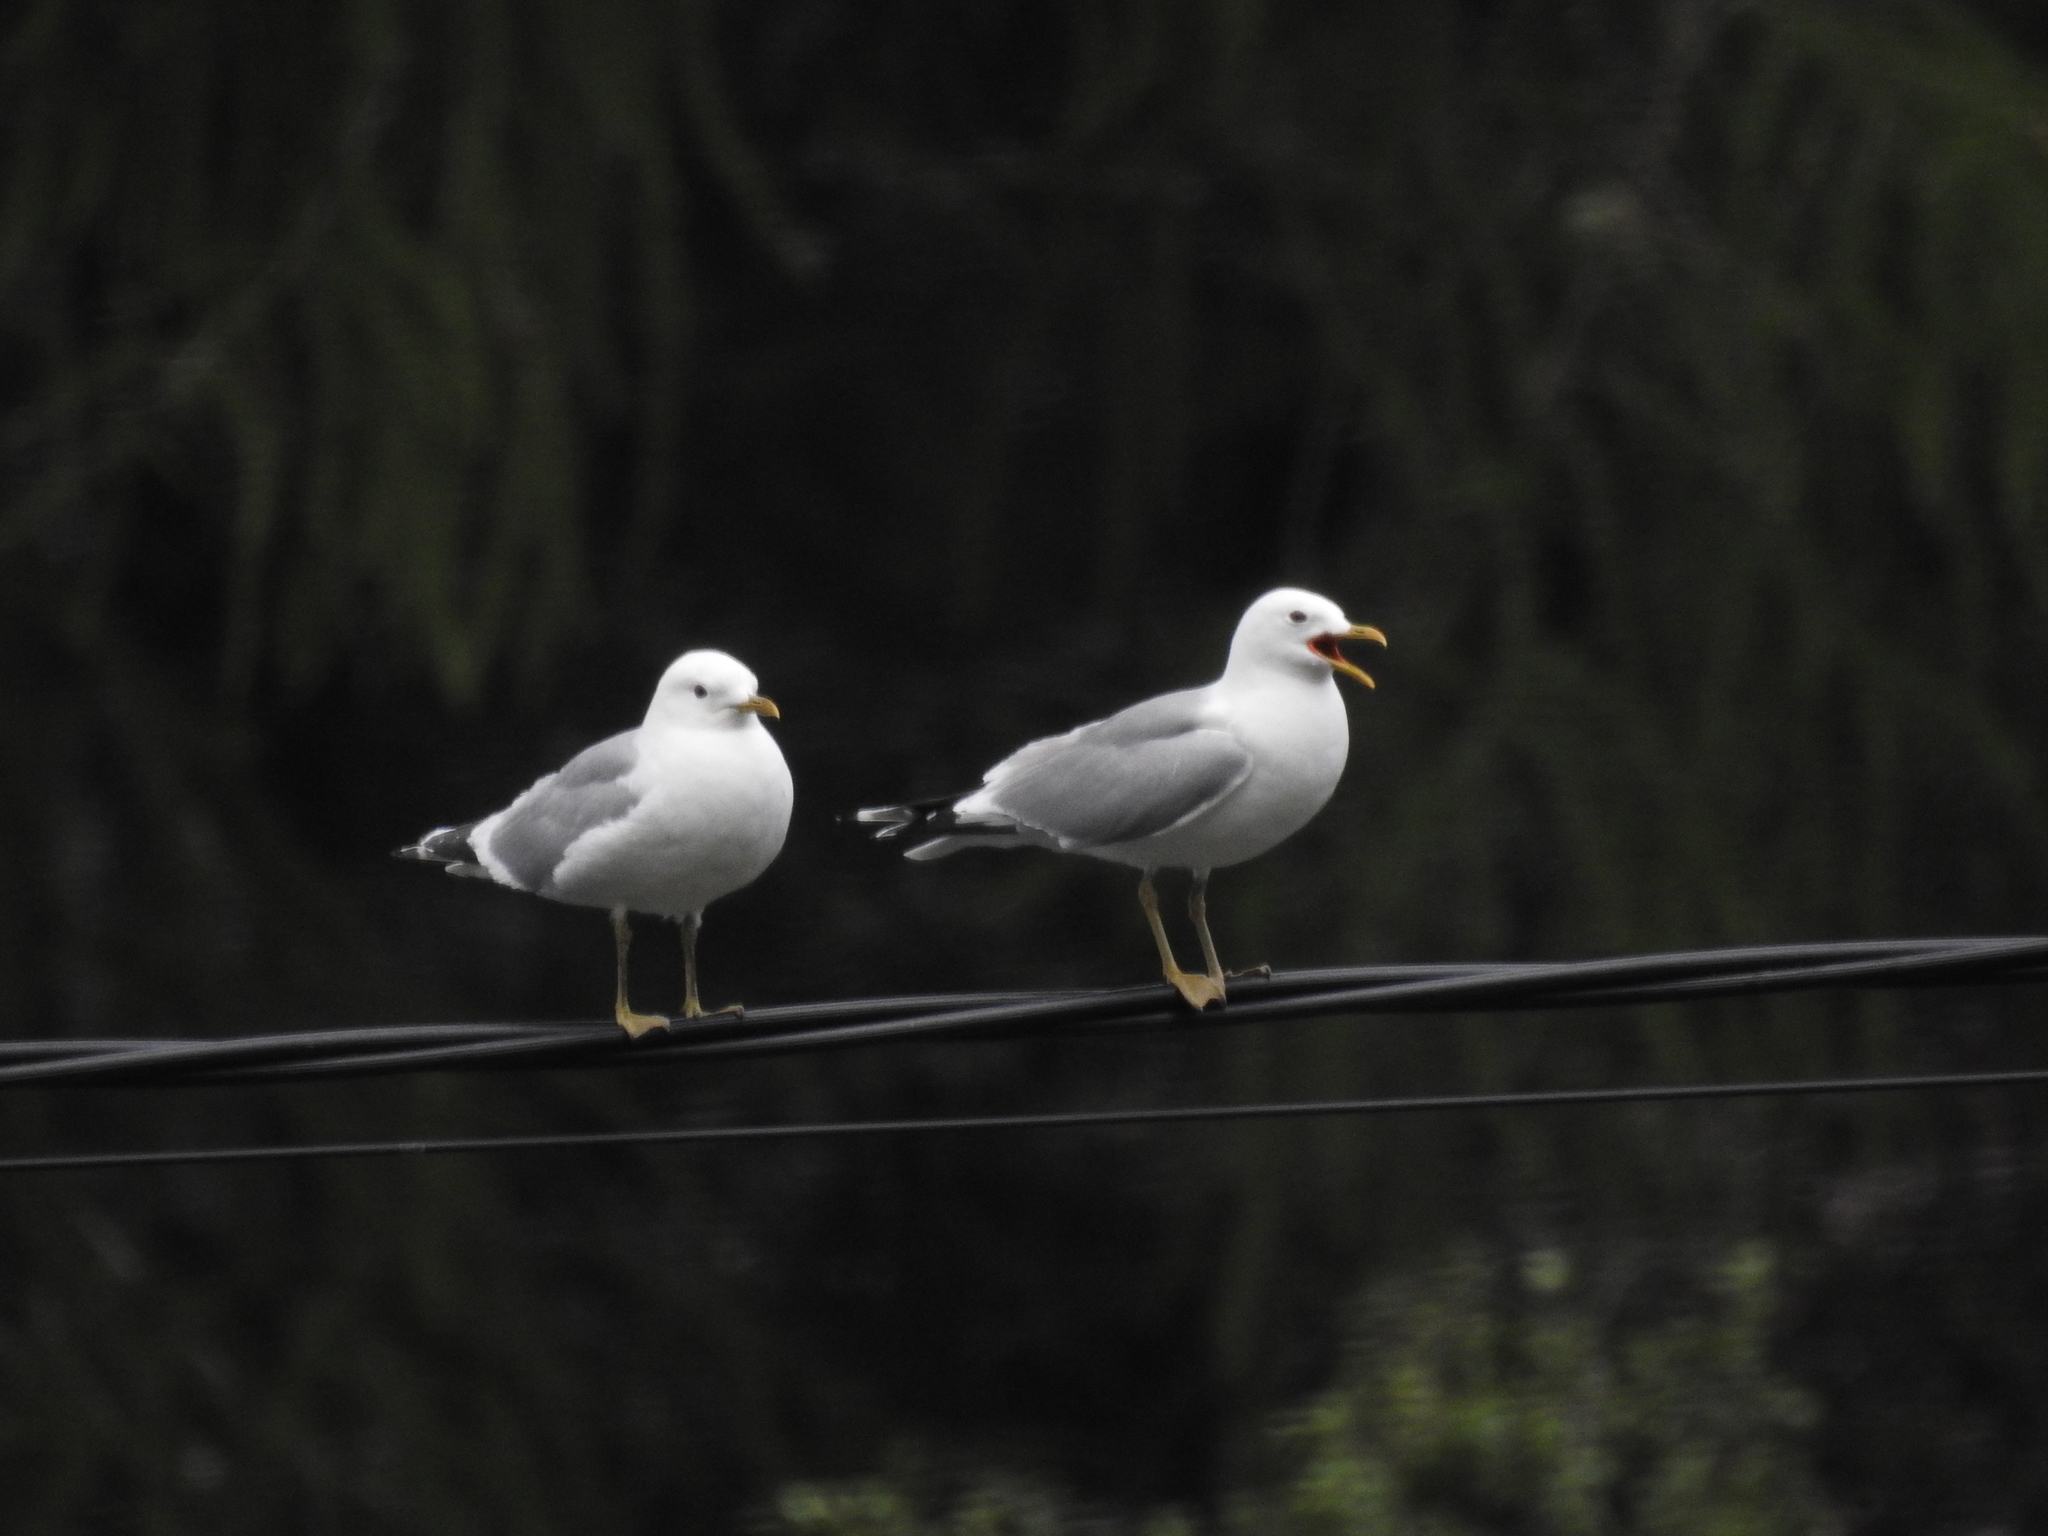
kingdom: Animalia
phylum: Chordata
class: Aves
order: Charadriiformes
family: Laridae
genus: Larus
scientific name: Larus canus
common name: Mew gull
